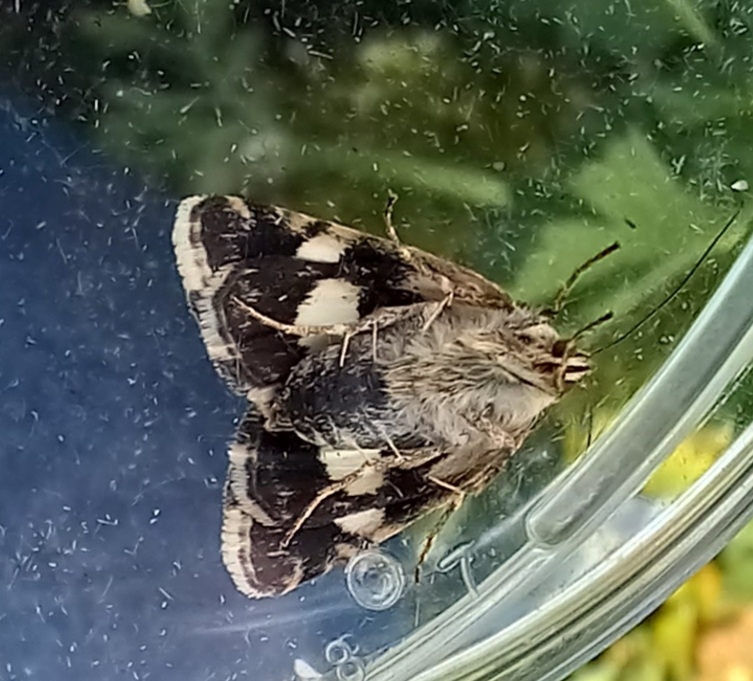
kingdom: Animalia
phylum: Arthropoda
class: Insecta
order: Lepidoptera
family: Erebidae
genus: Tyta
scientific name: Tyta luctuosa
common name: Four-spotted
